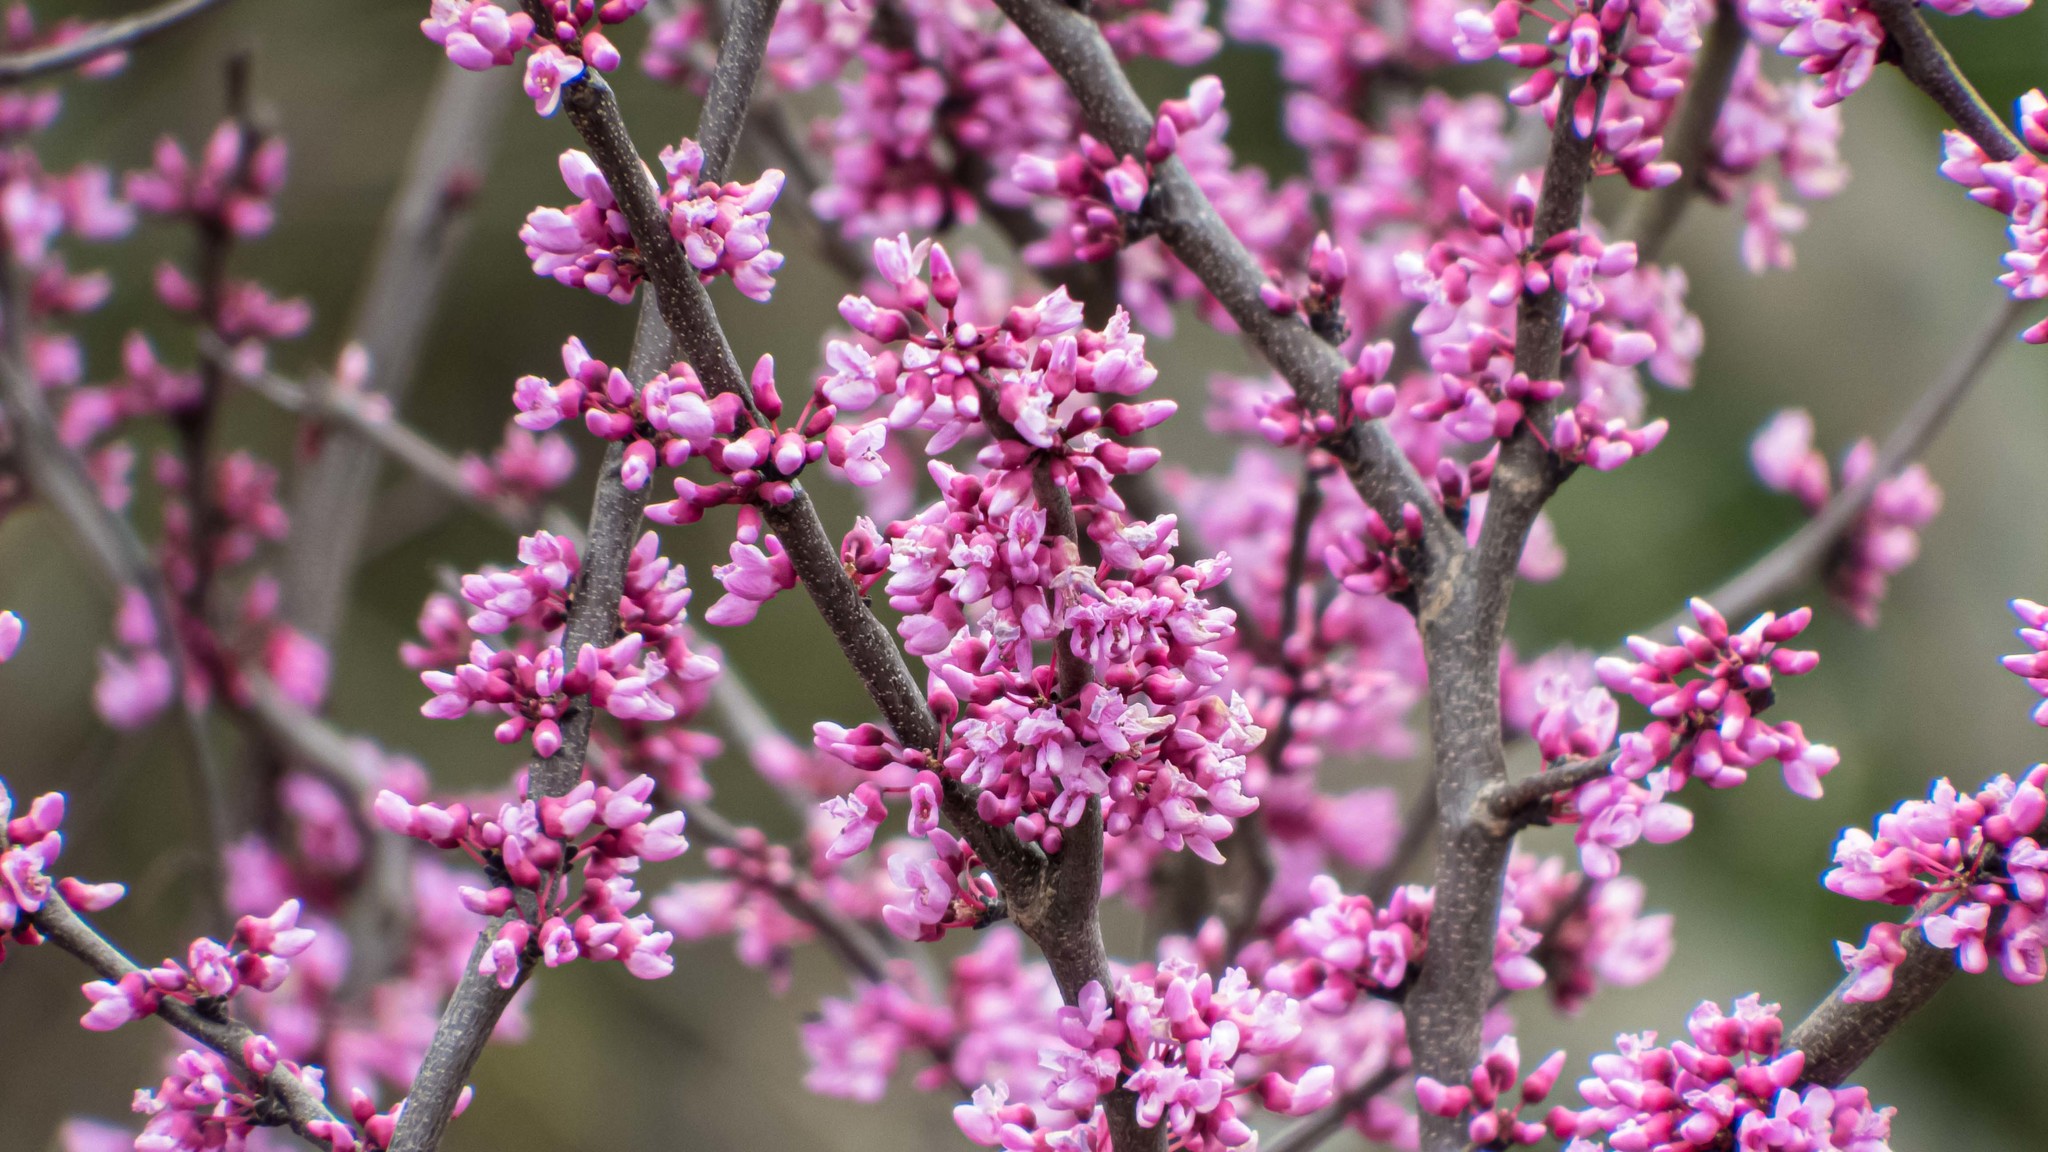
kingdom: Plantae
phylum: Tracheophyta
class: Magnoliopsida
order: Fabales
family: Fabaceae
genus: Cercis
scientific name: Cercis canadensis
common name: Eastern redbud
